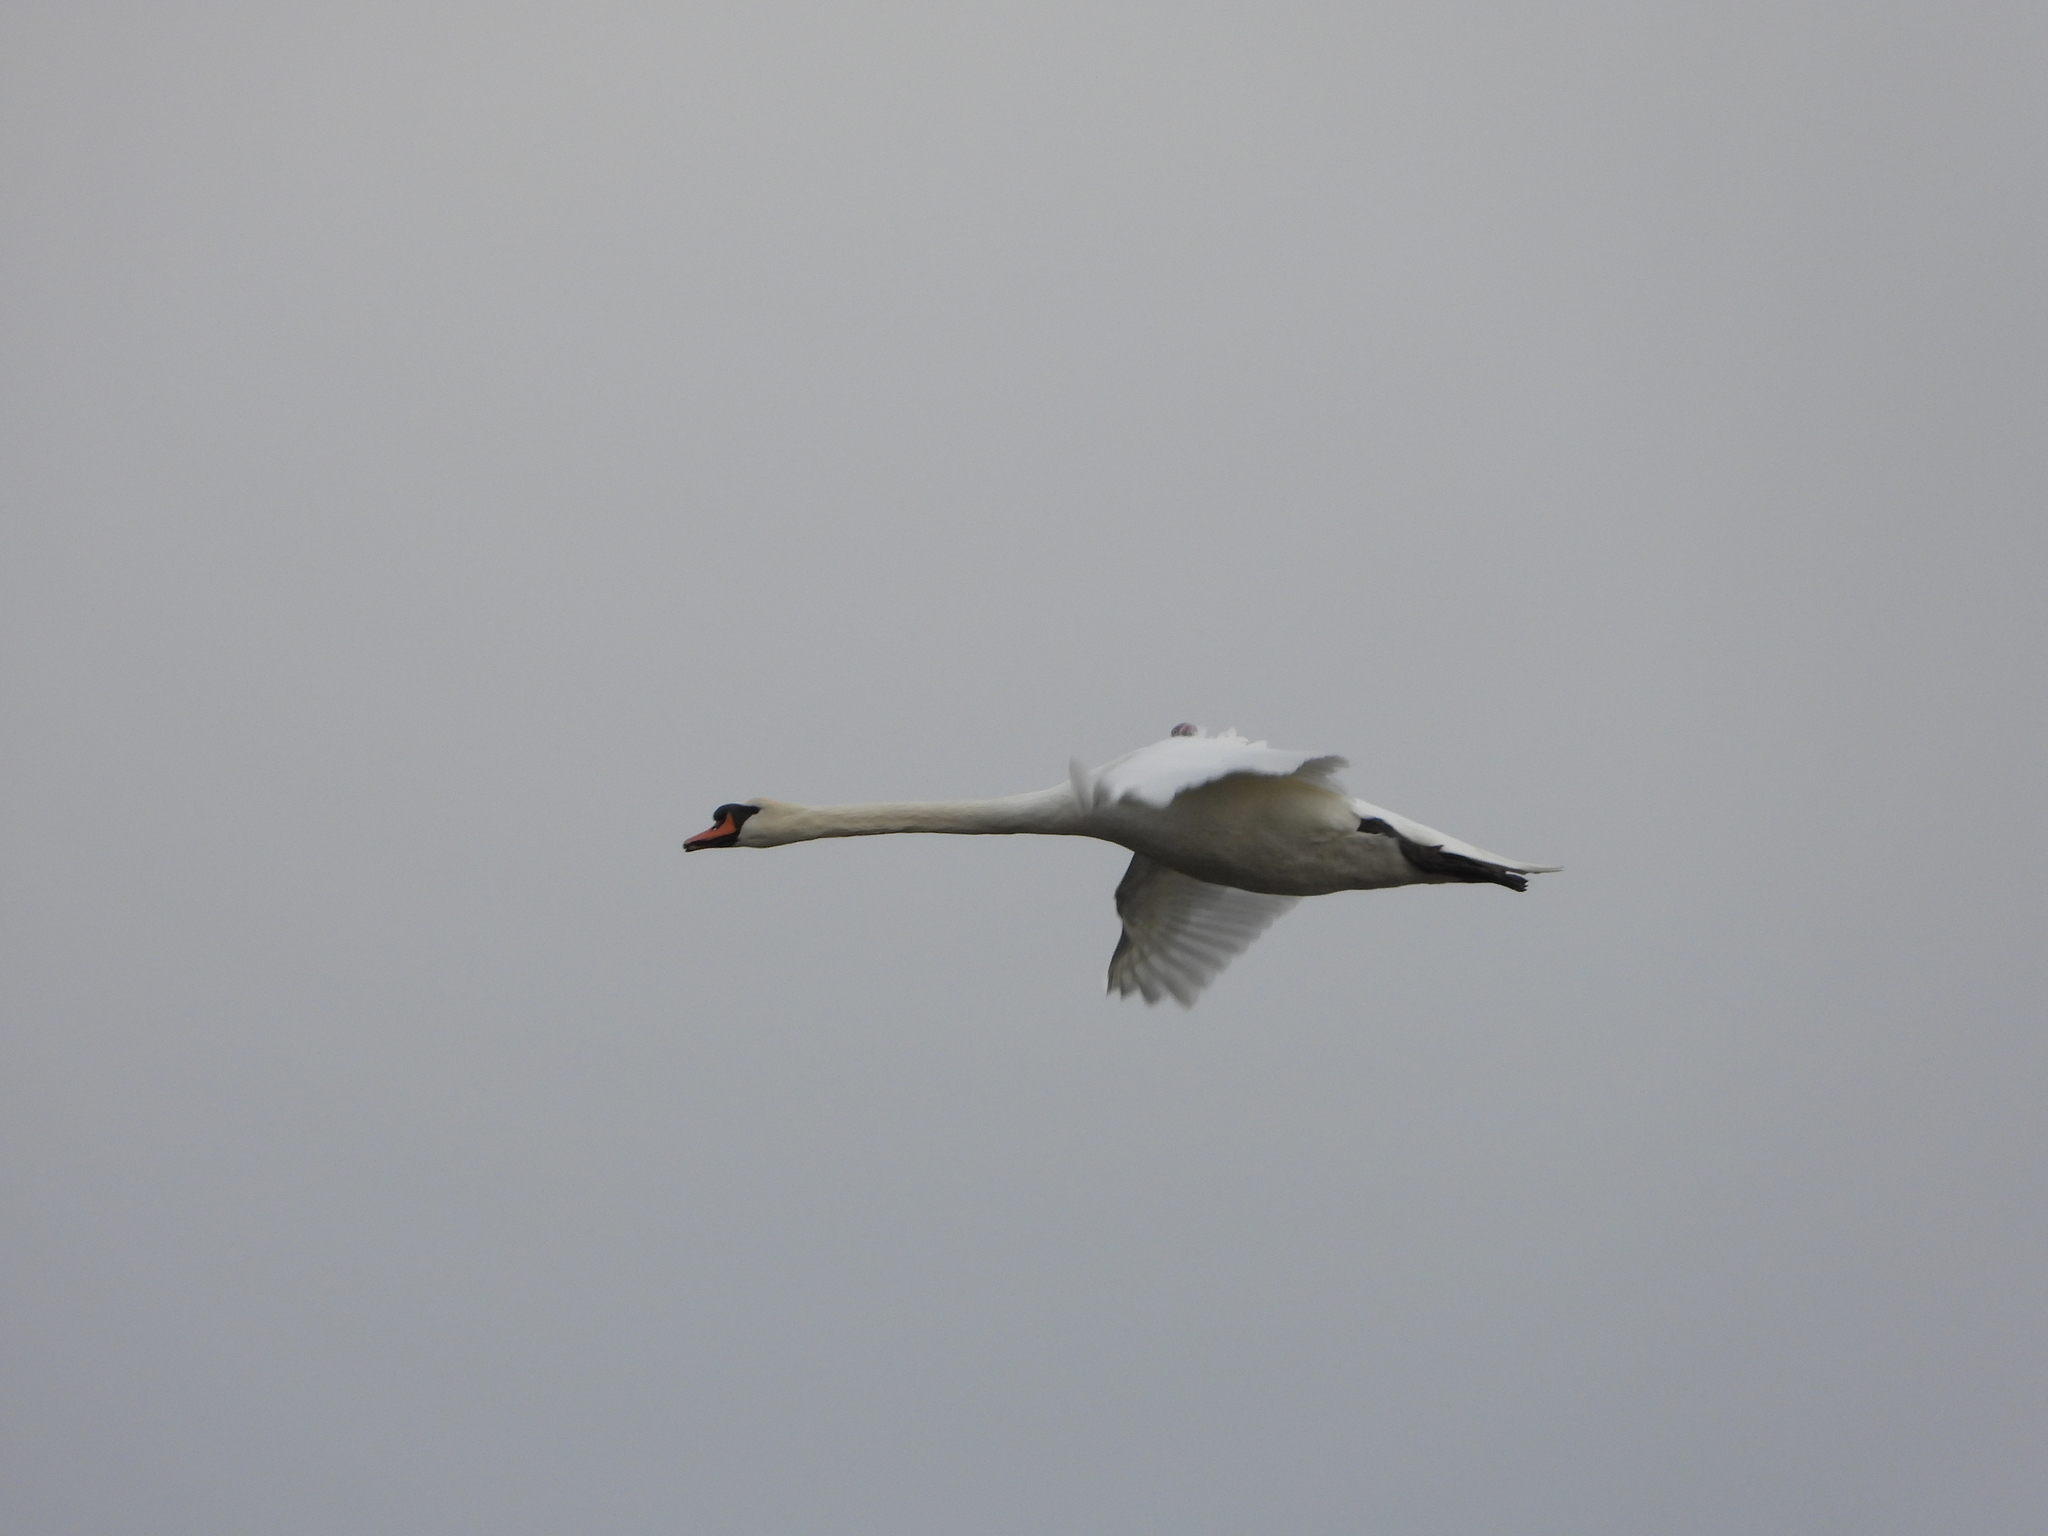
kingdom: Animalia
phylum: Chordata
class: Aves
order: Anseriformes
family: Anatidae
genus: Cygnus
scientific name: Cygnus olor
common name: Mute swan
